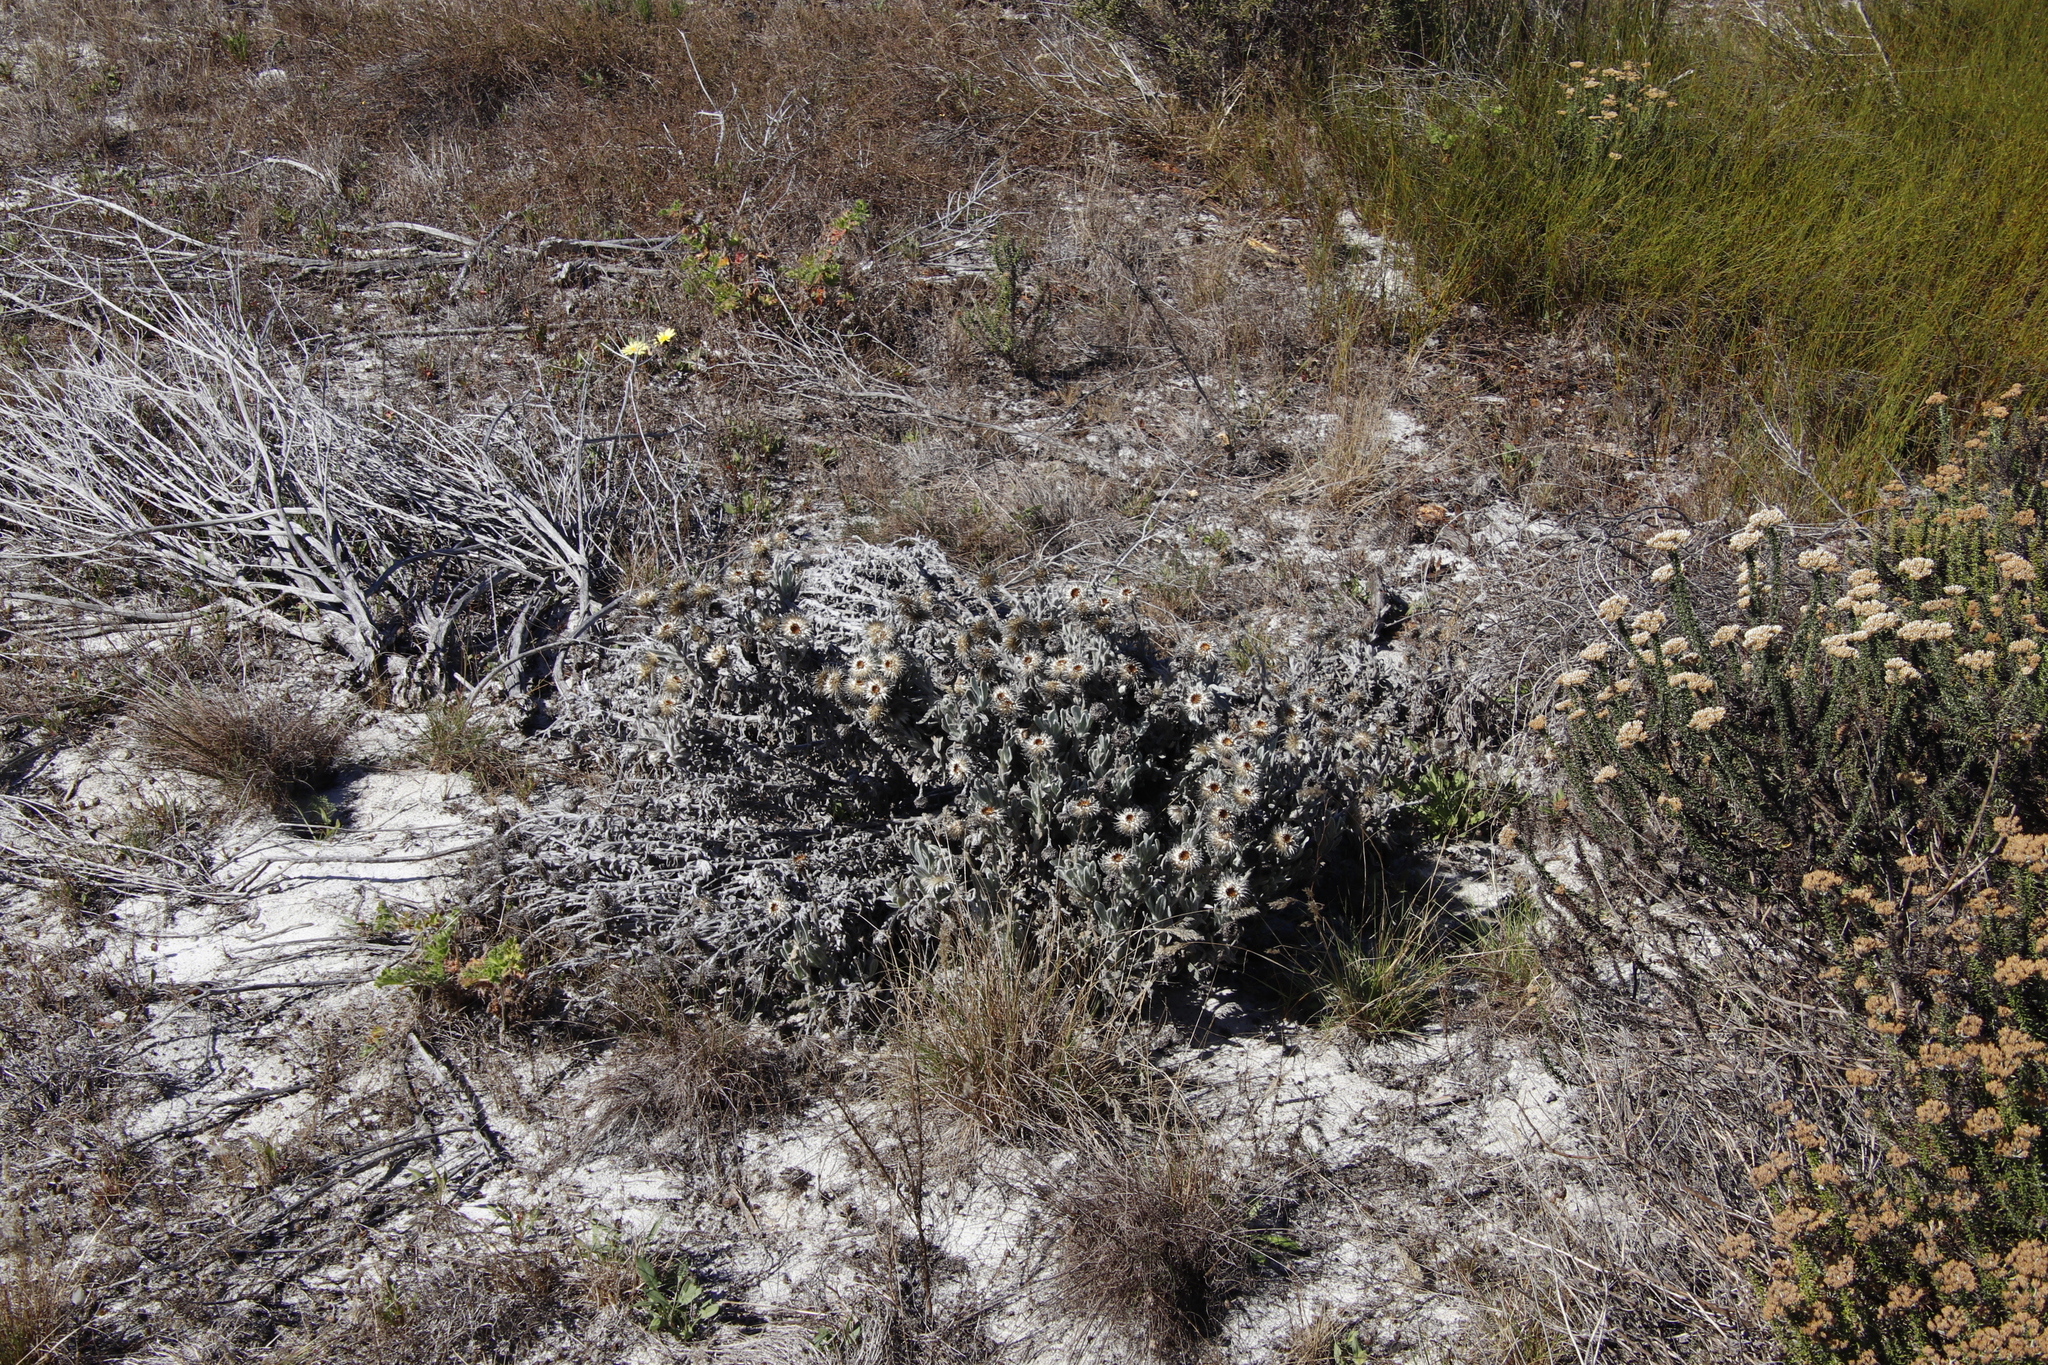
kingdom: Plantae
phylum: Tracheophyta
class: Magnoliopsida
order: Asterales
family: Asteraceae
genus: Syncarpha
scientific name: Syncarpha vestita
